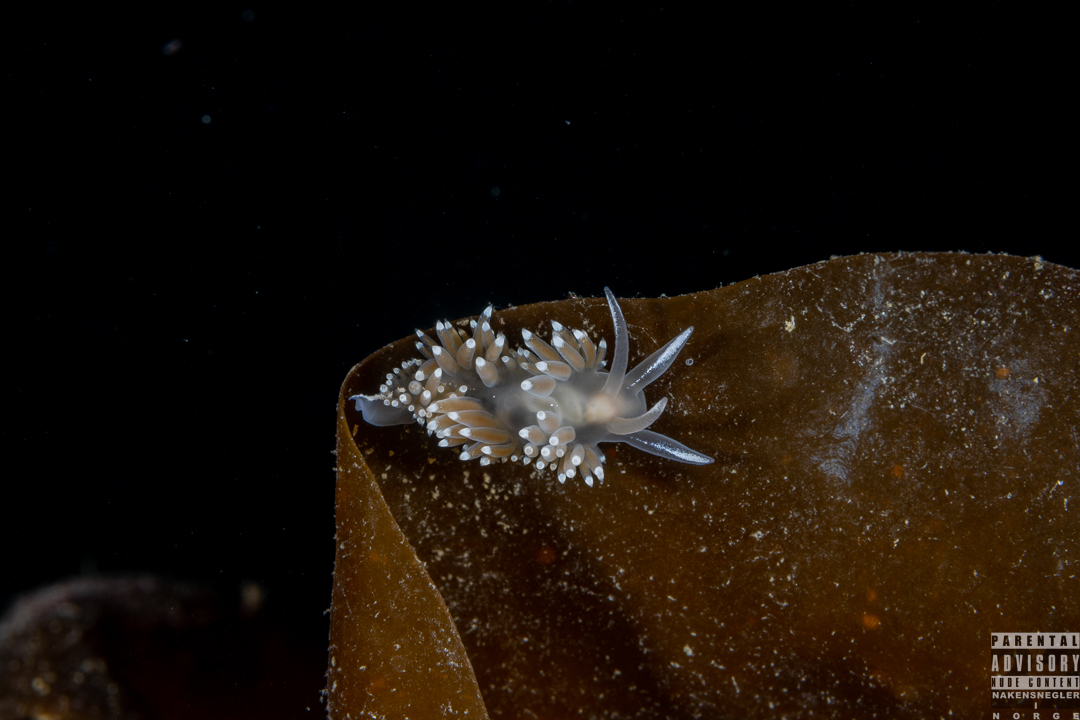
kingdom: Animalia
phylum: Mollusca
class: Gastropoda
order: Nudibranchia
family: Coryphellidae
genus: Coryphella
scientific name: Coryphella verrucosa
